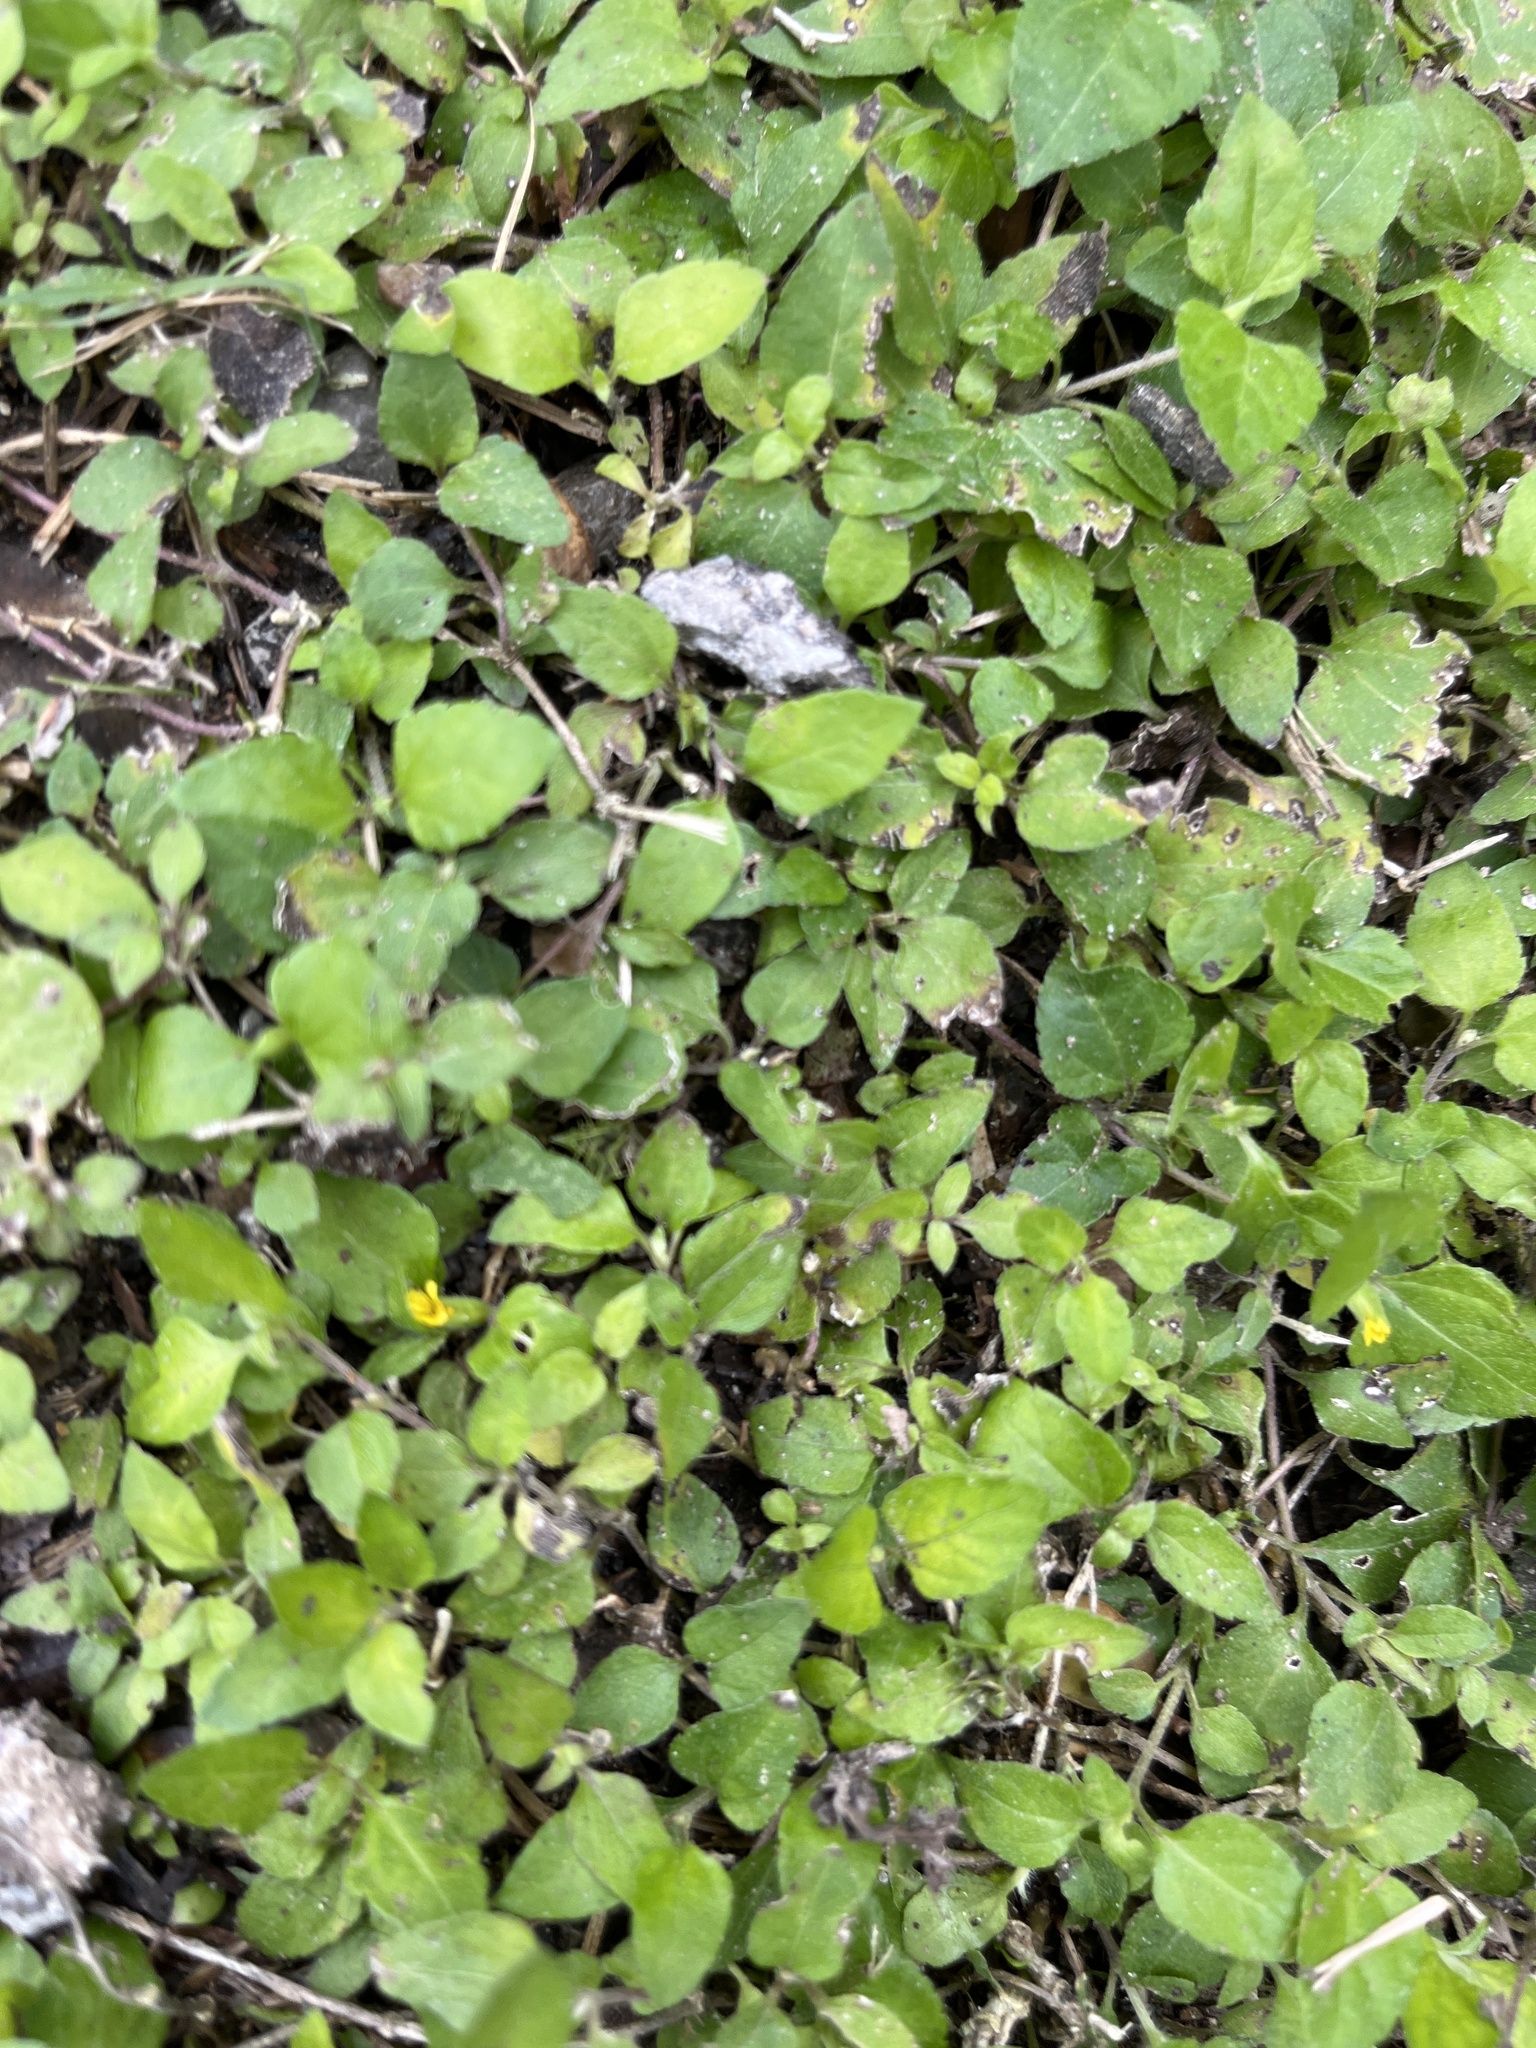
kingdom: Plantae
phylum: Tracheophyta
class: Magnoliopsida
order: Asterales
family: Asteraceae
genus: Calyptocarpus
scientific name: Calyptocarpus vialis
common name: Straggler daisy
